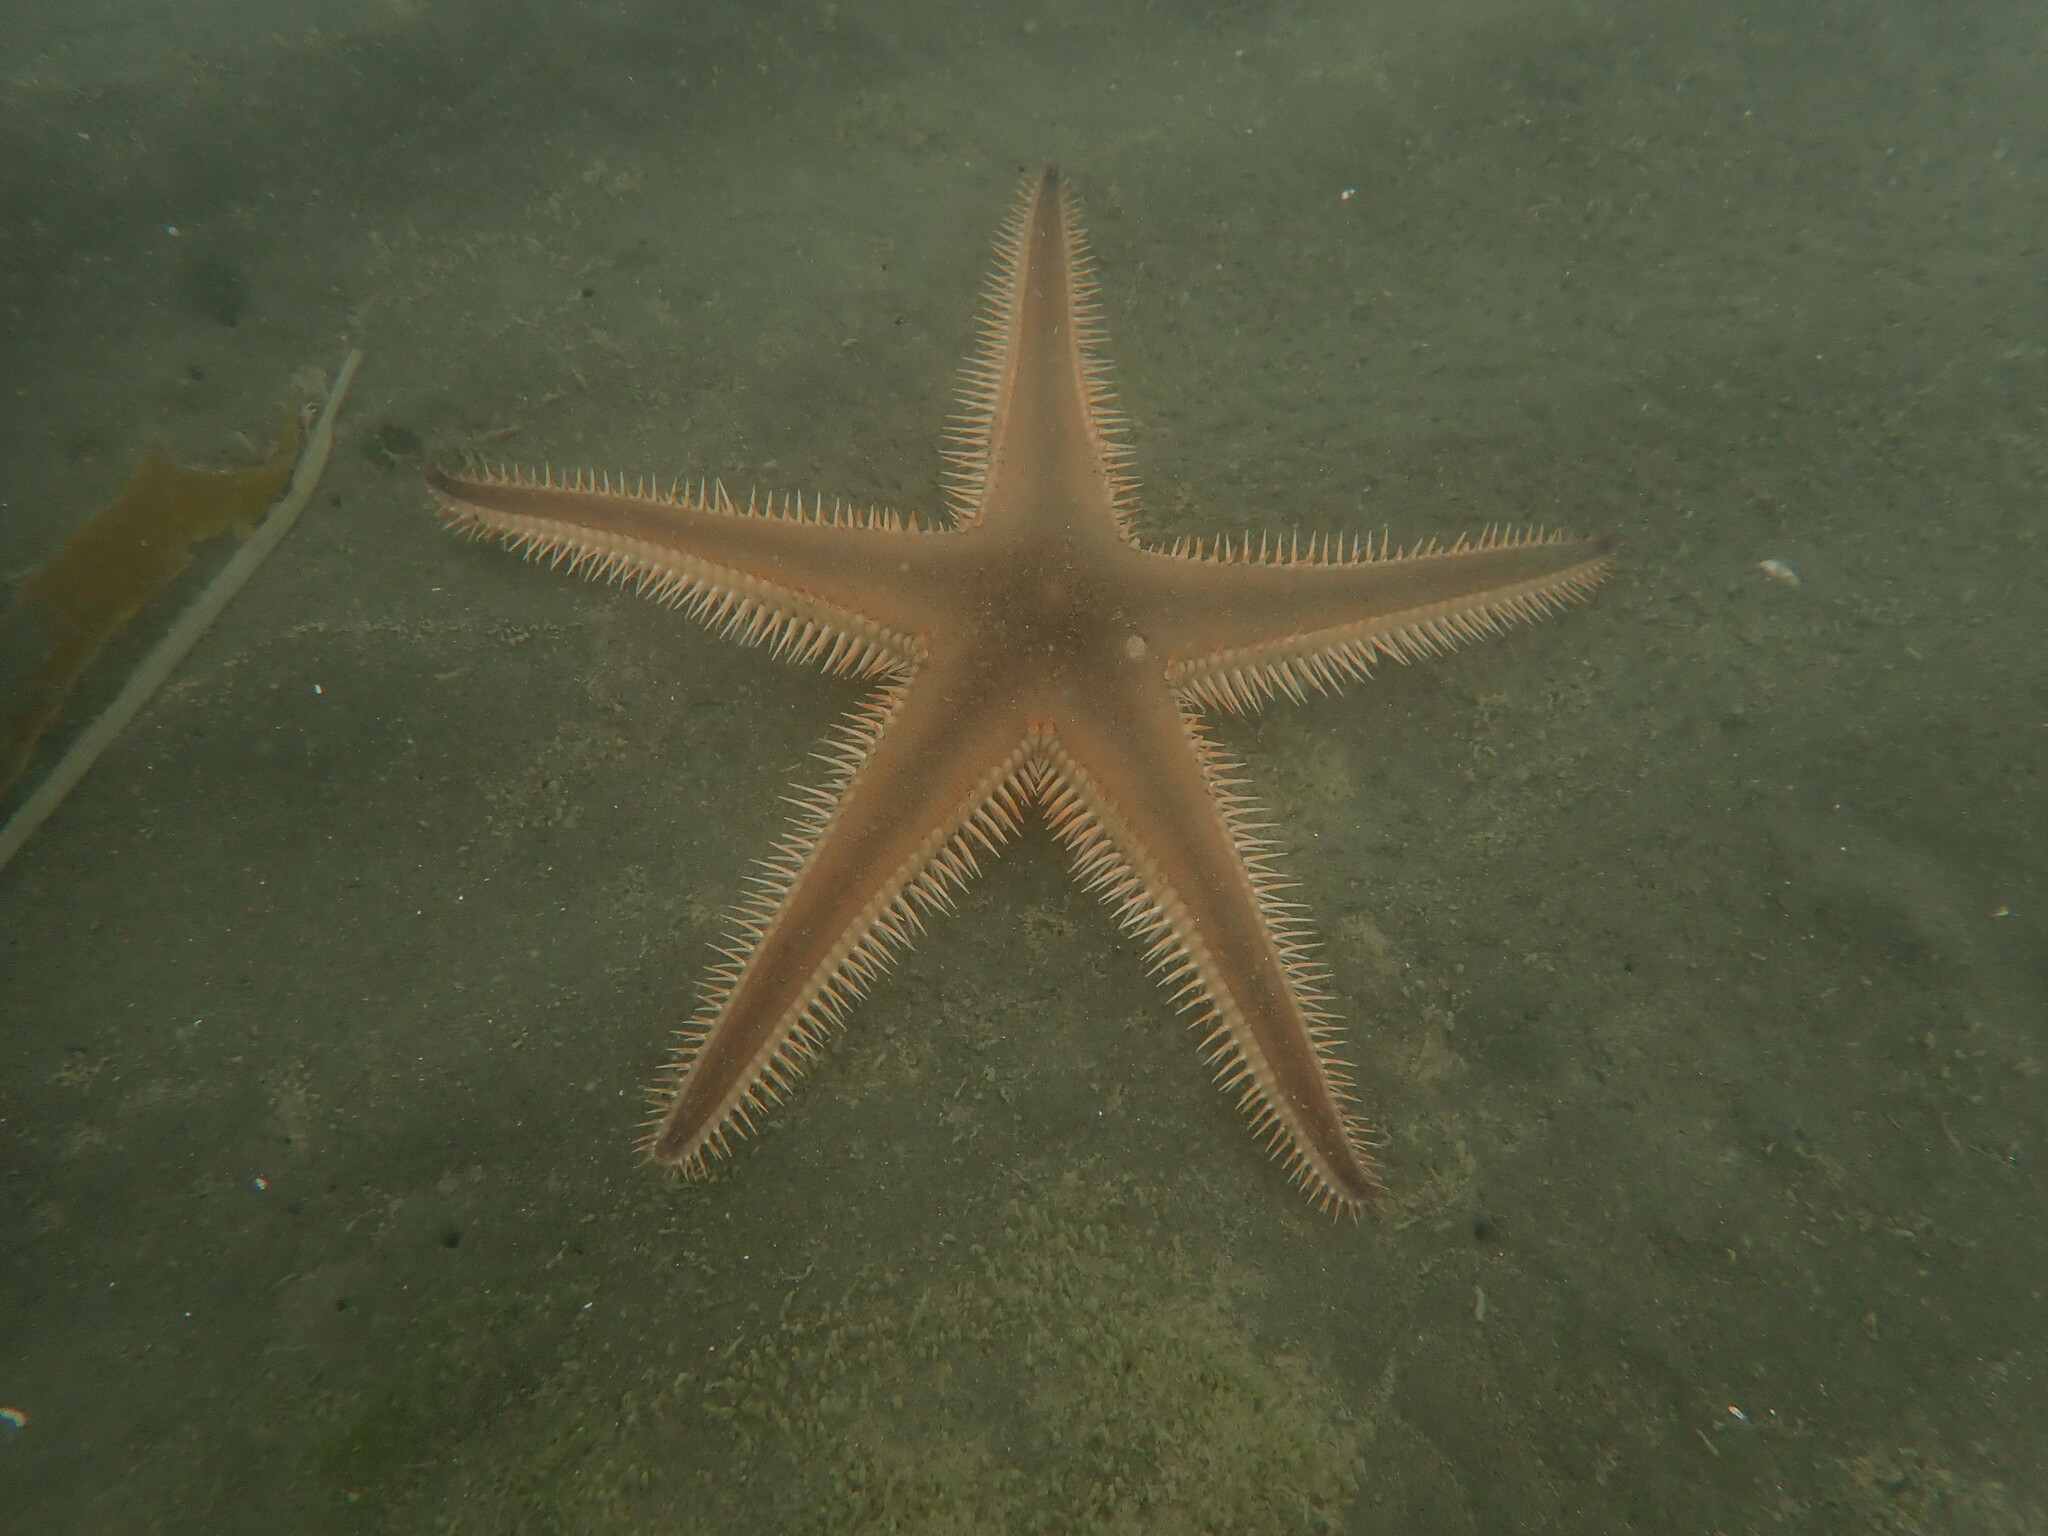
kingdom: Animalia
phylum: Echinodermata
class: Asteroidea
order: Paxillosida
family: Astropectinidae
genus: Astropecten
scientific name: Astropecten polyacanthus
